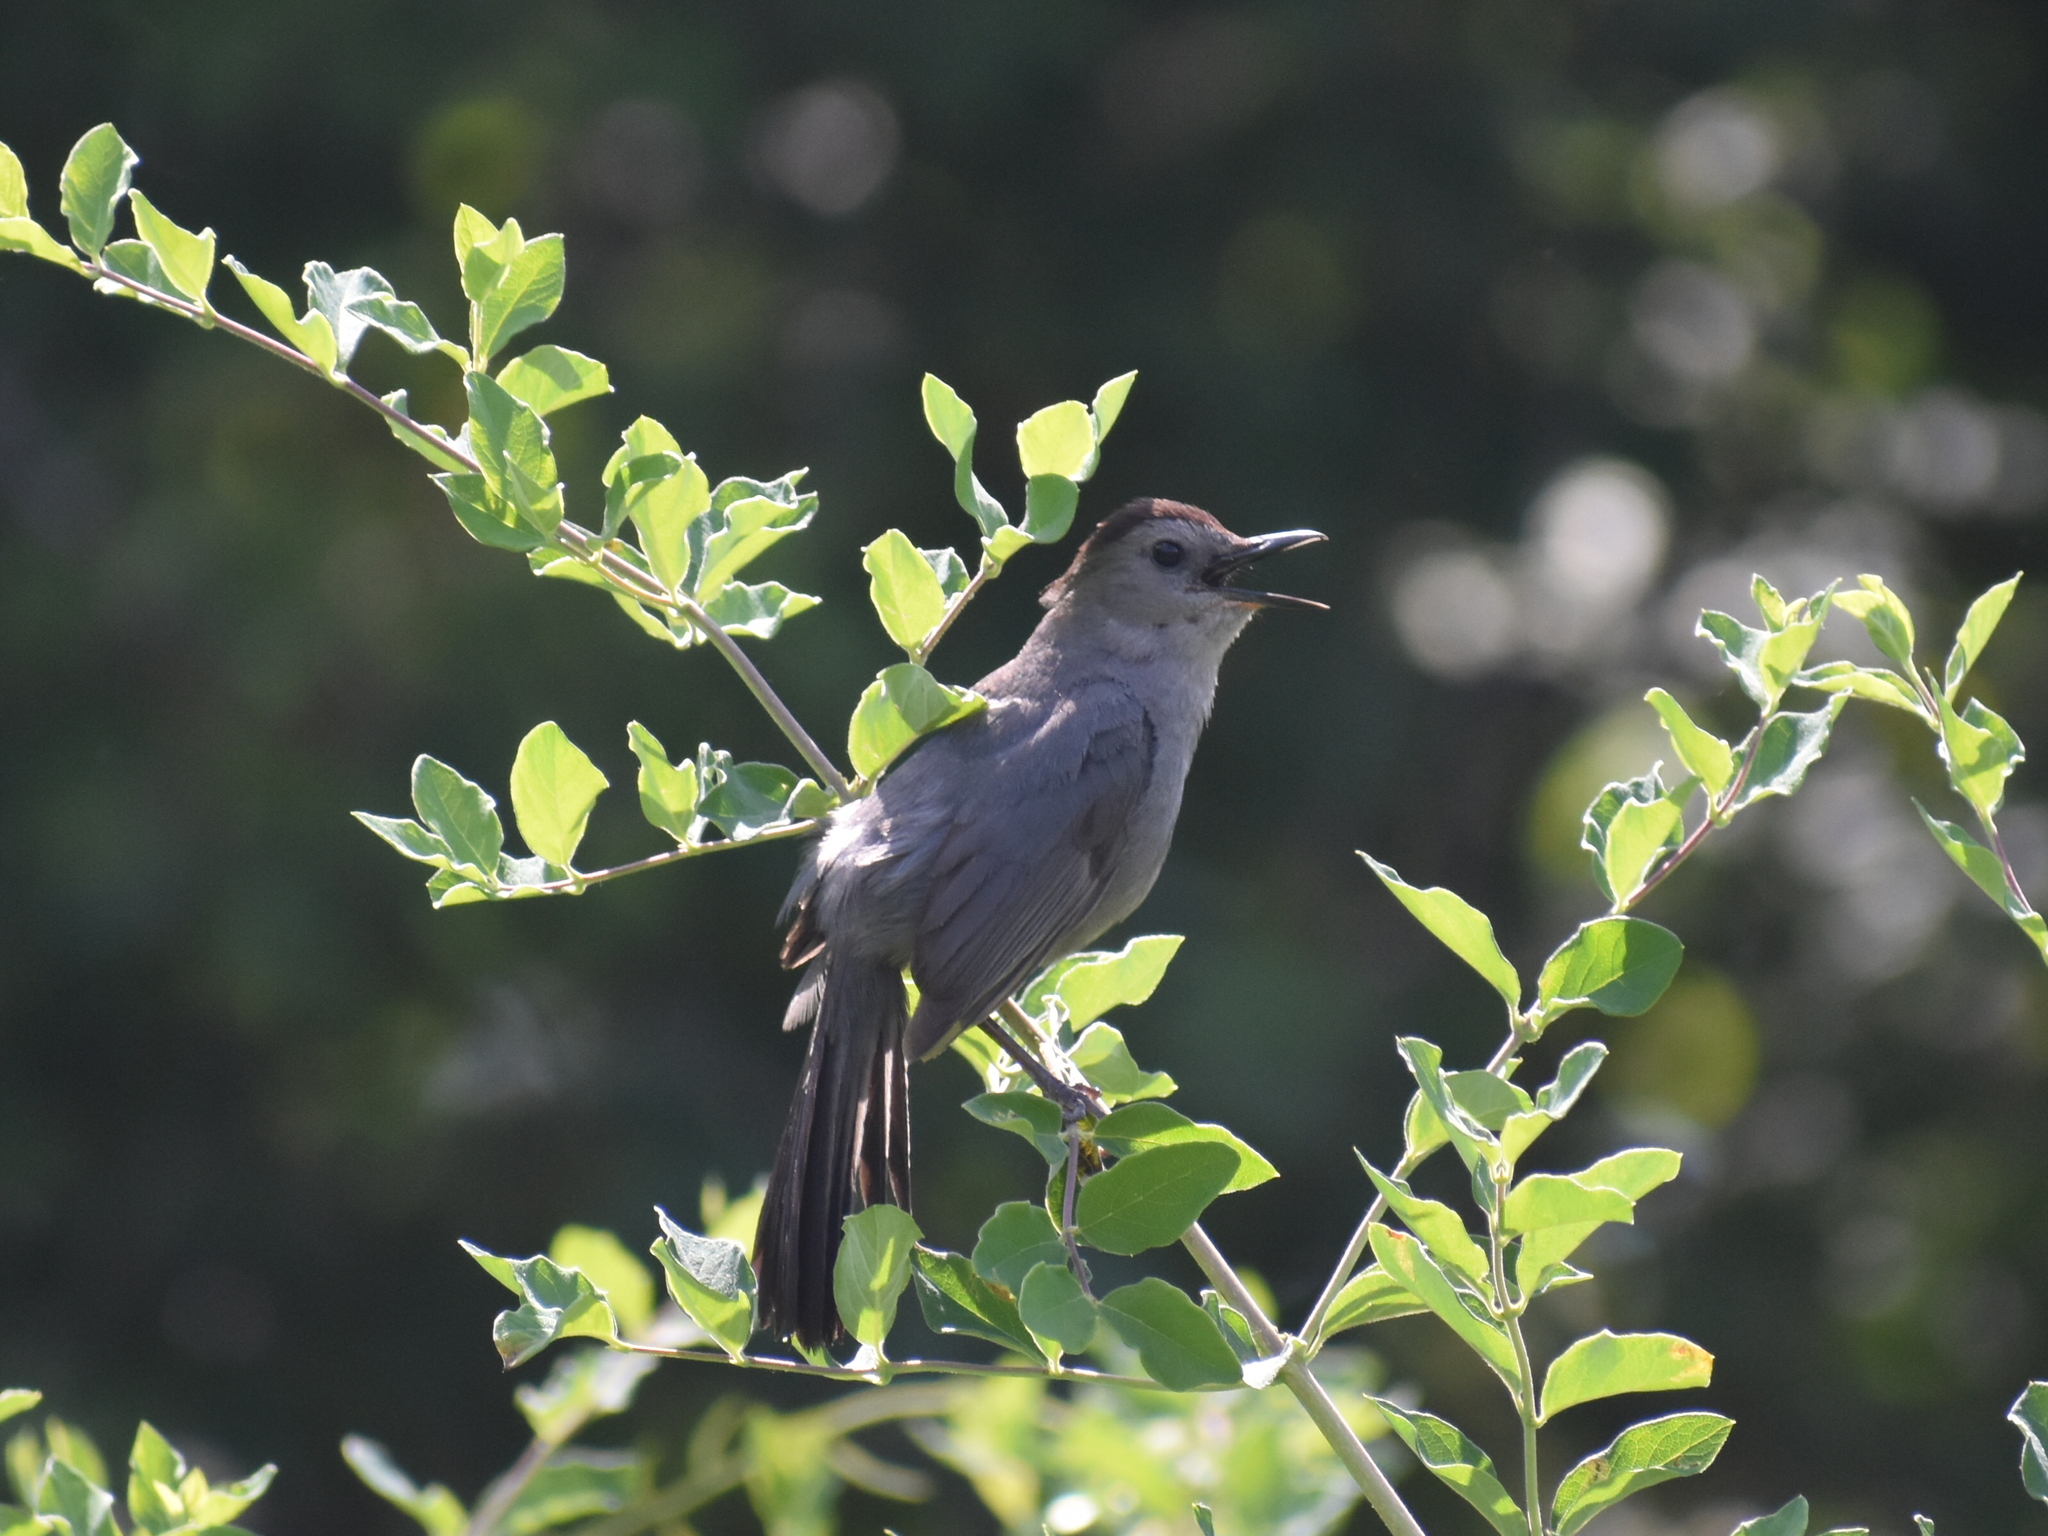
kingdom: Animalia
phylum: Chordata
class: Aves
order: Passeriformes
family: Mimidae
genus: Dumetella
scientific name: Dumetella carolinensis
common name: Gray catbird
